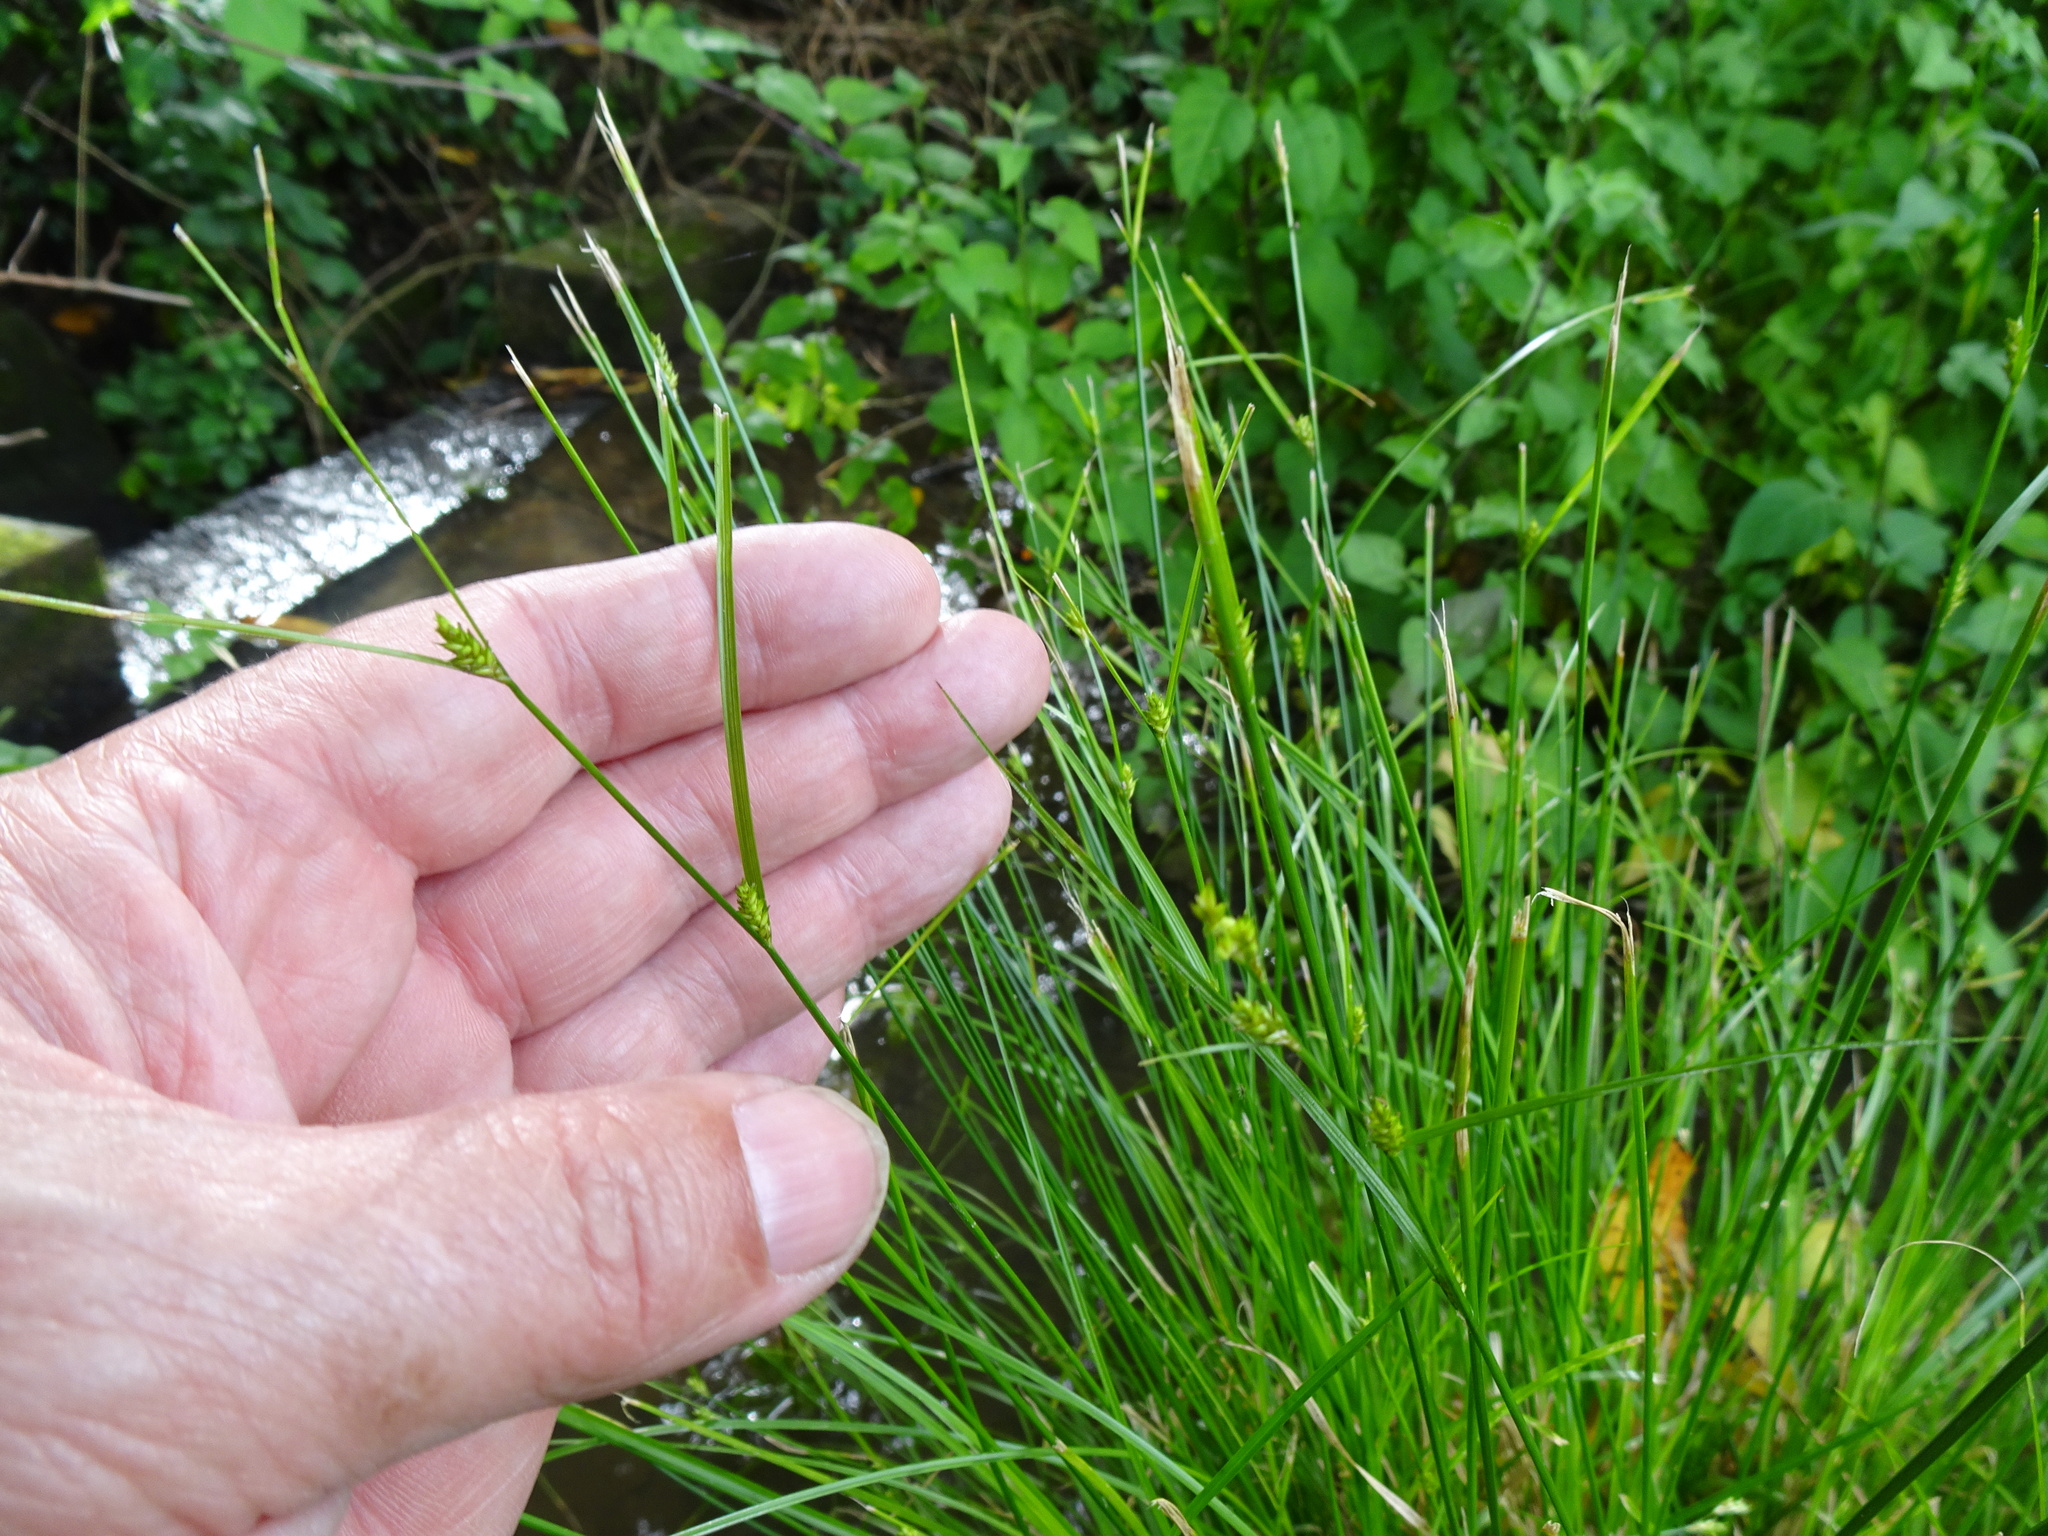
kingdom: Plantae
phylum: Tracheophyta
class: Liliopsida
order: Poales
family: Cyperaceae
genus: Carex
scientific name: Carex remota
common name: Remote sedge
